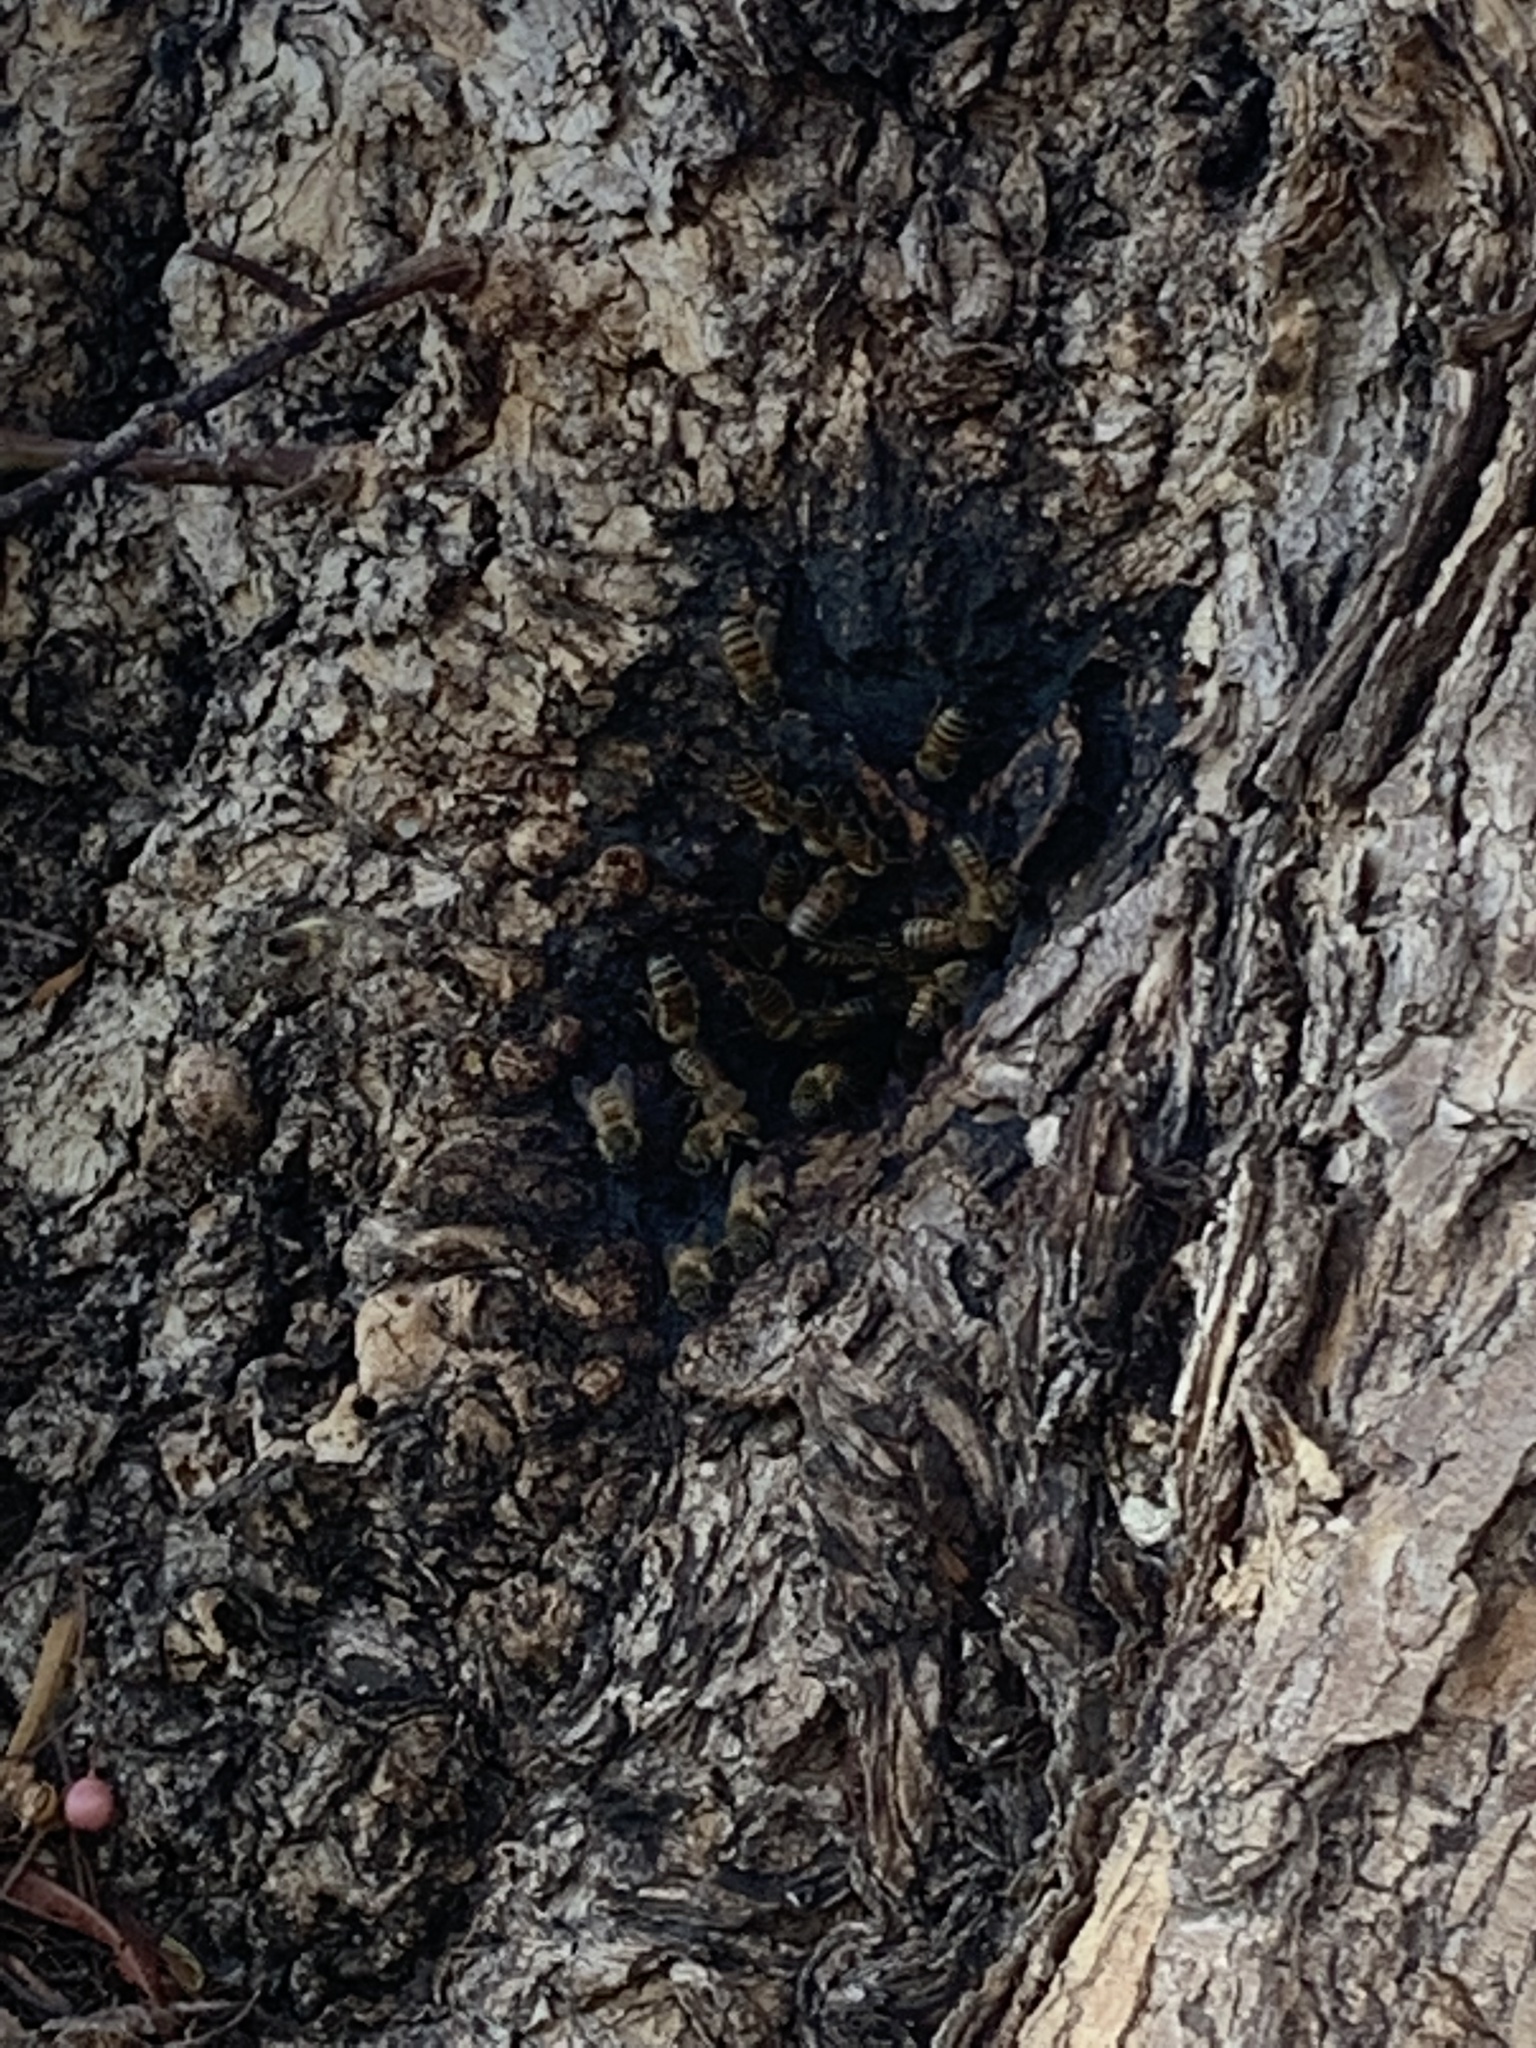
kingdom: Animalia
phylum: Arthropoda
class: Insecta
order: Hymenoptera
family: Apidae
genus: Apis
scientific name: Apis mellifera
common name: Honey bee
